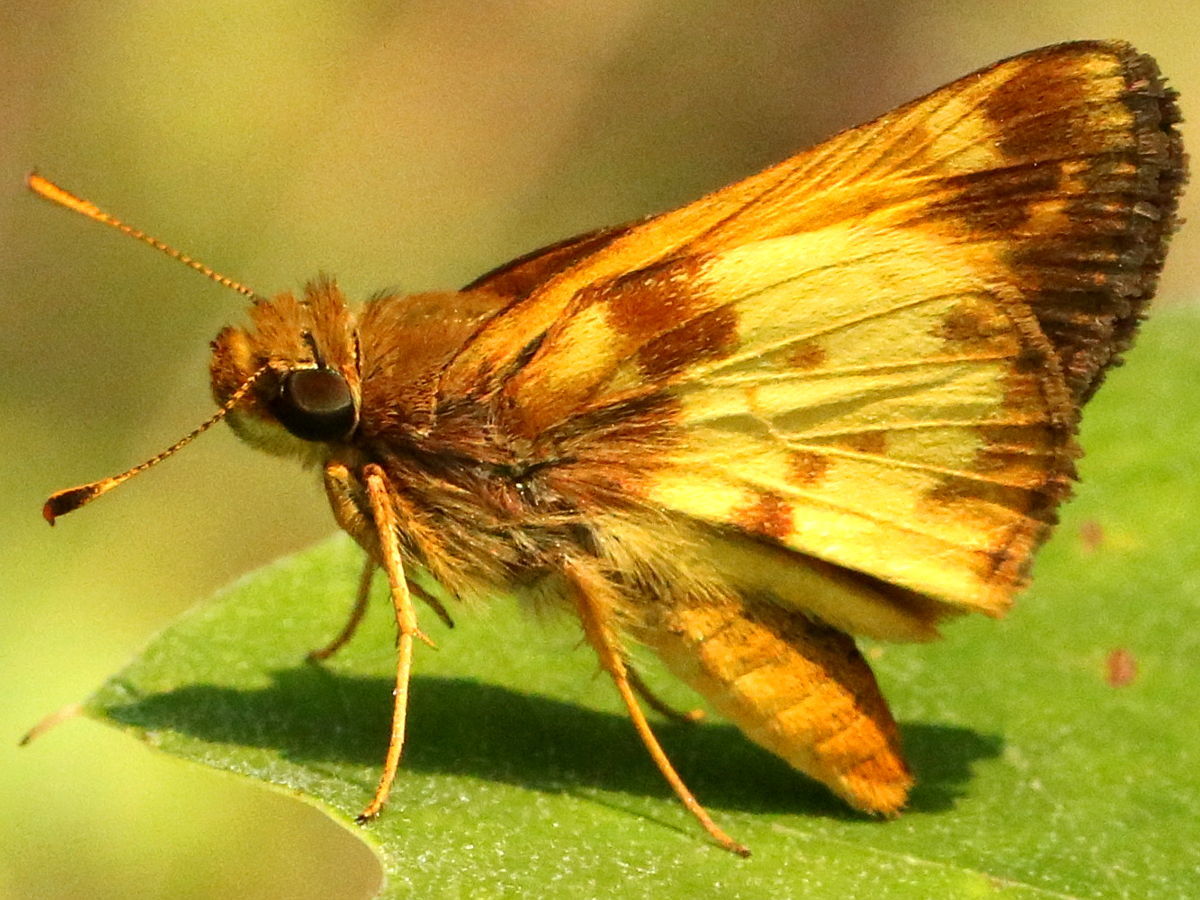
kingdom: Animalia
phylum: Arthropoda
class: Insecta
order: Lepidoptera
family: Hesperiidae
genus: Lon
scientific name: Lon zabulon
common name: Zabulon skipper
